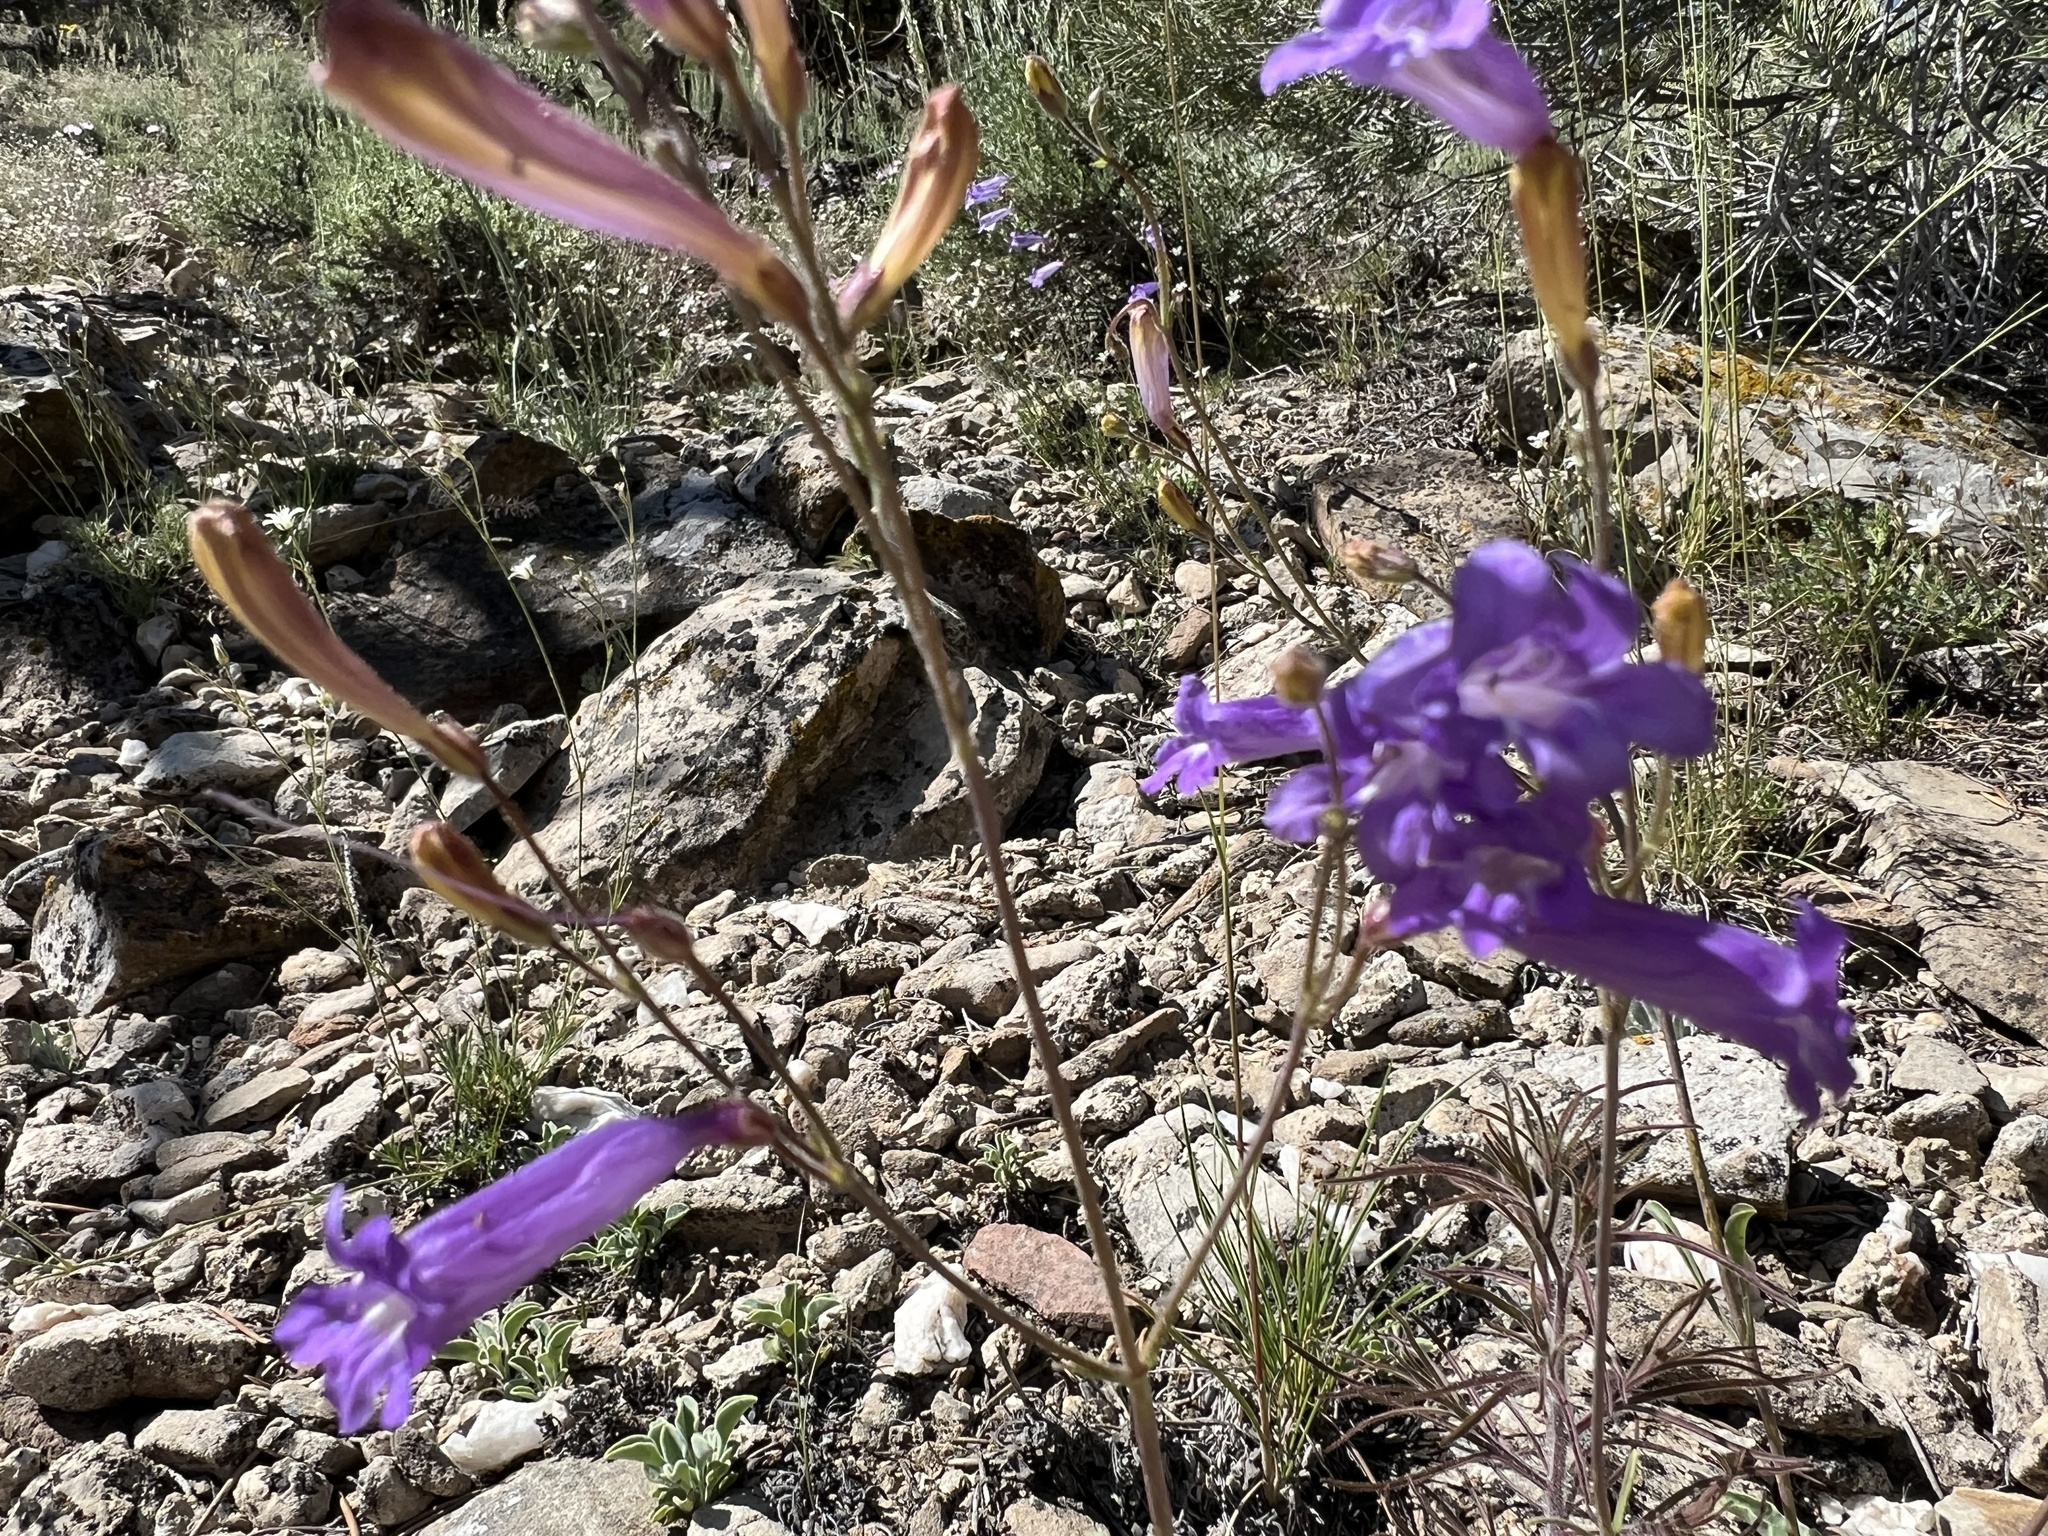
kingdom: Plantae
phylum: Tracheophyta
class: Magnoliopsida
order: Lamiales
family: Plantaginaceae
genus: Penstemon
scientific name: Penstemon scapoides
